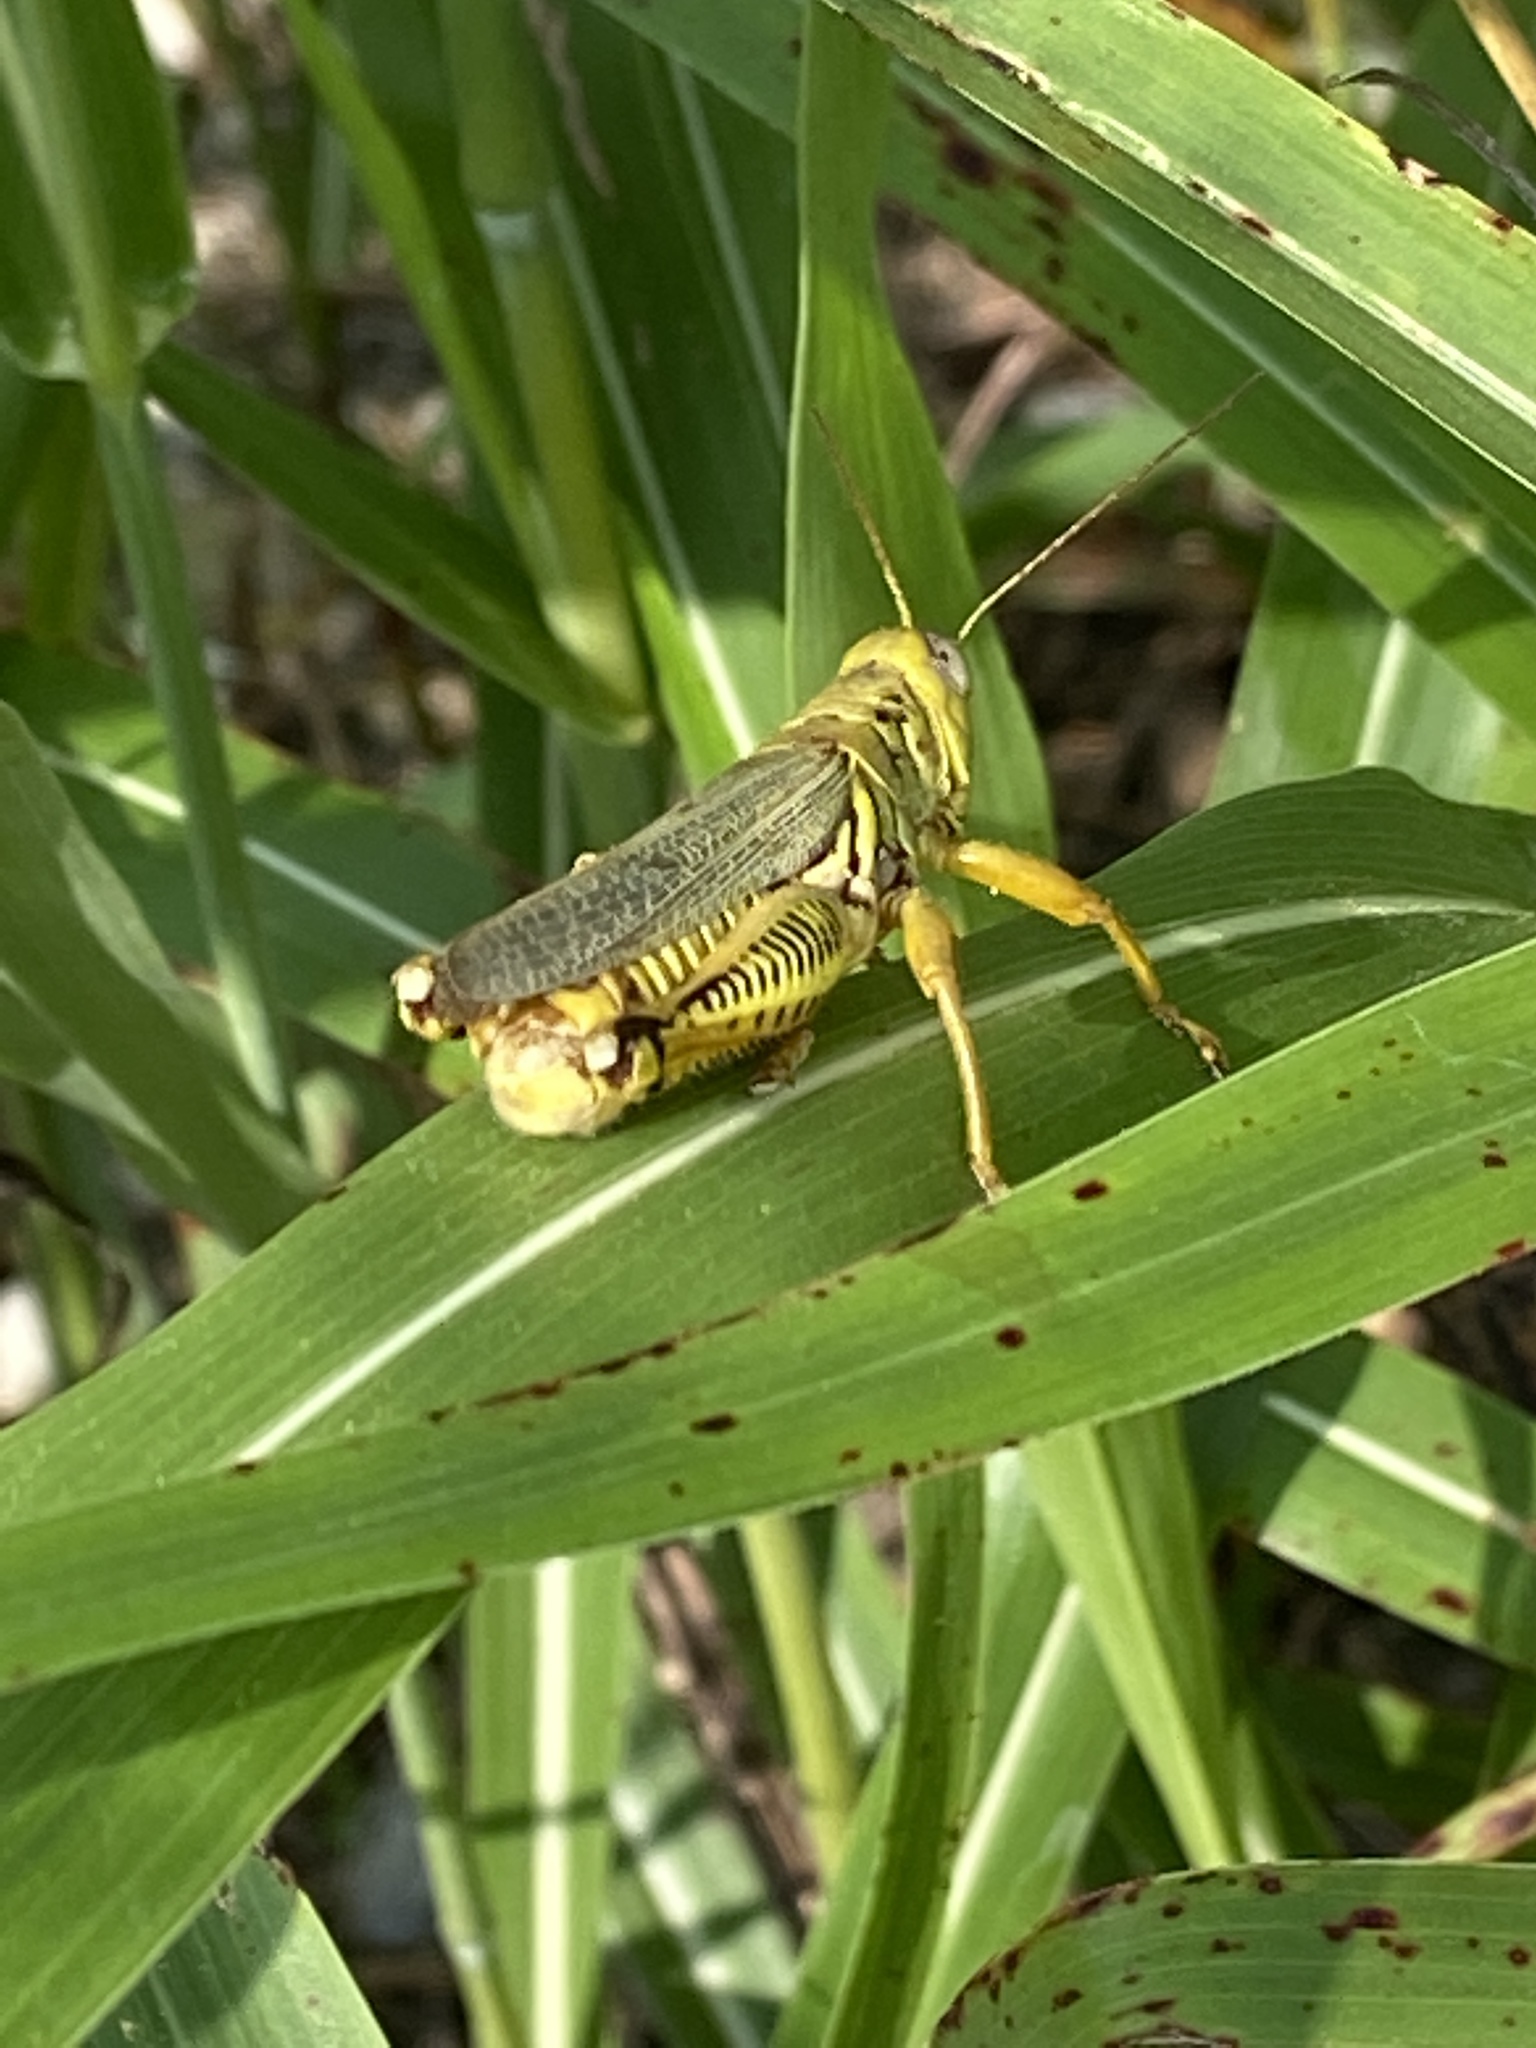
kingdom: Animalia
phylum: Arthropoda
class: Insecta
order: Orthoptera
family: Acrididae
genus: Melanoplus
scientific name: Melanoplus differentialis
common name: Differential grasshopper
